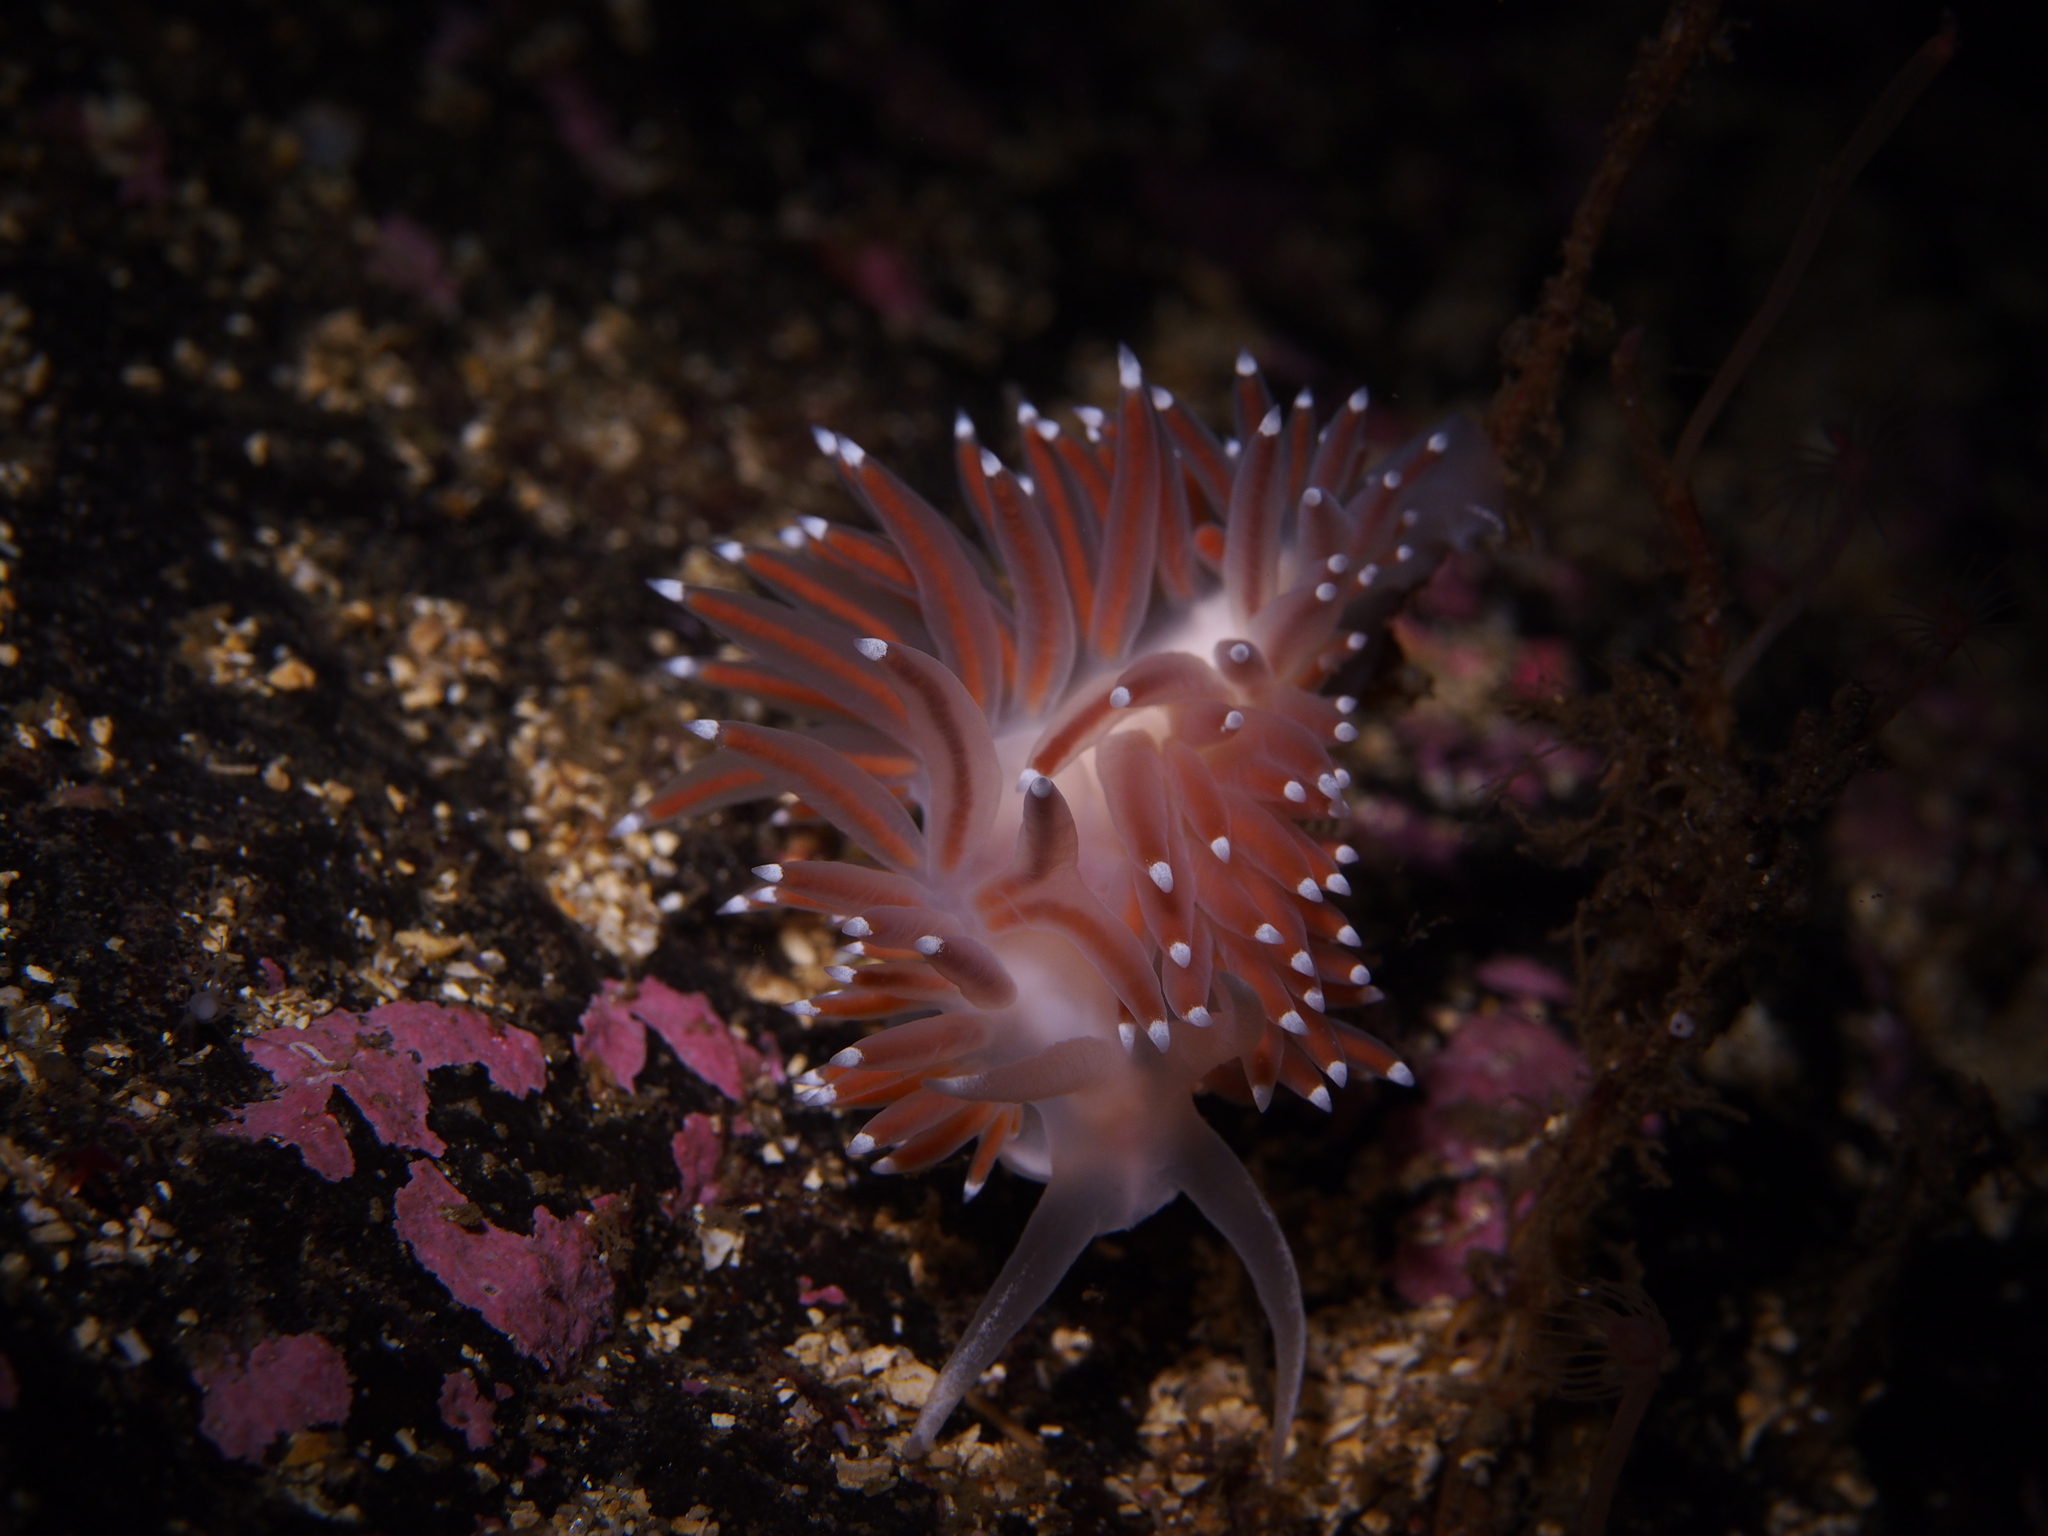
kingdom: Animalia
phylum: Mollusca
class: Gastropoda
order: Nudibranchia
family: Coryphellidae
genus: Coryphella
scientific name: Coryphella browni
